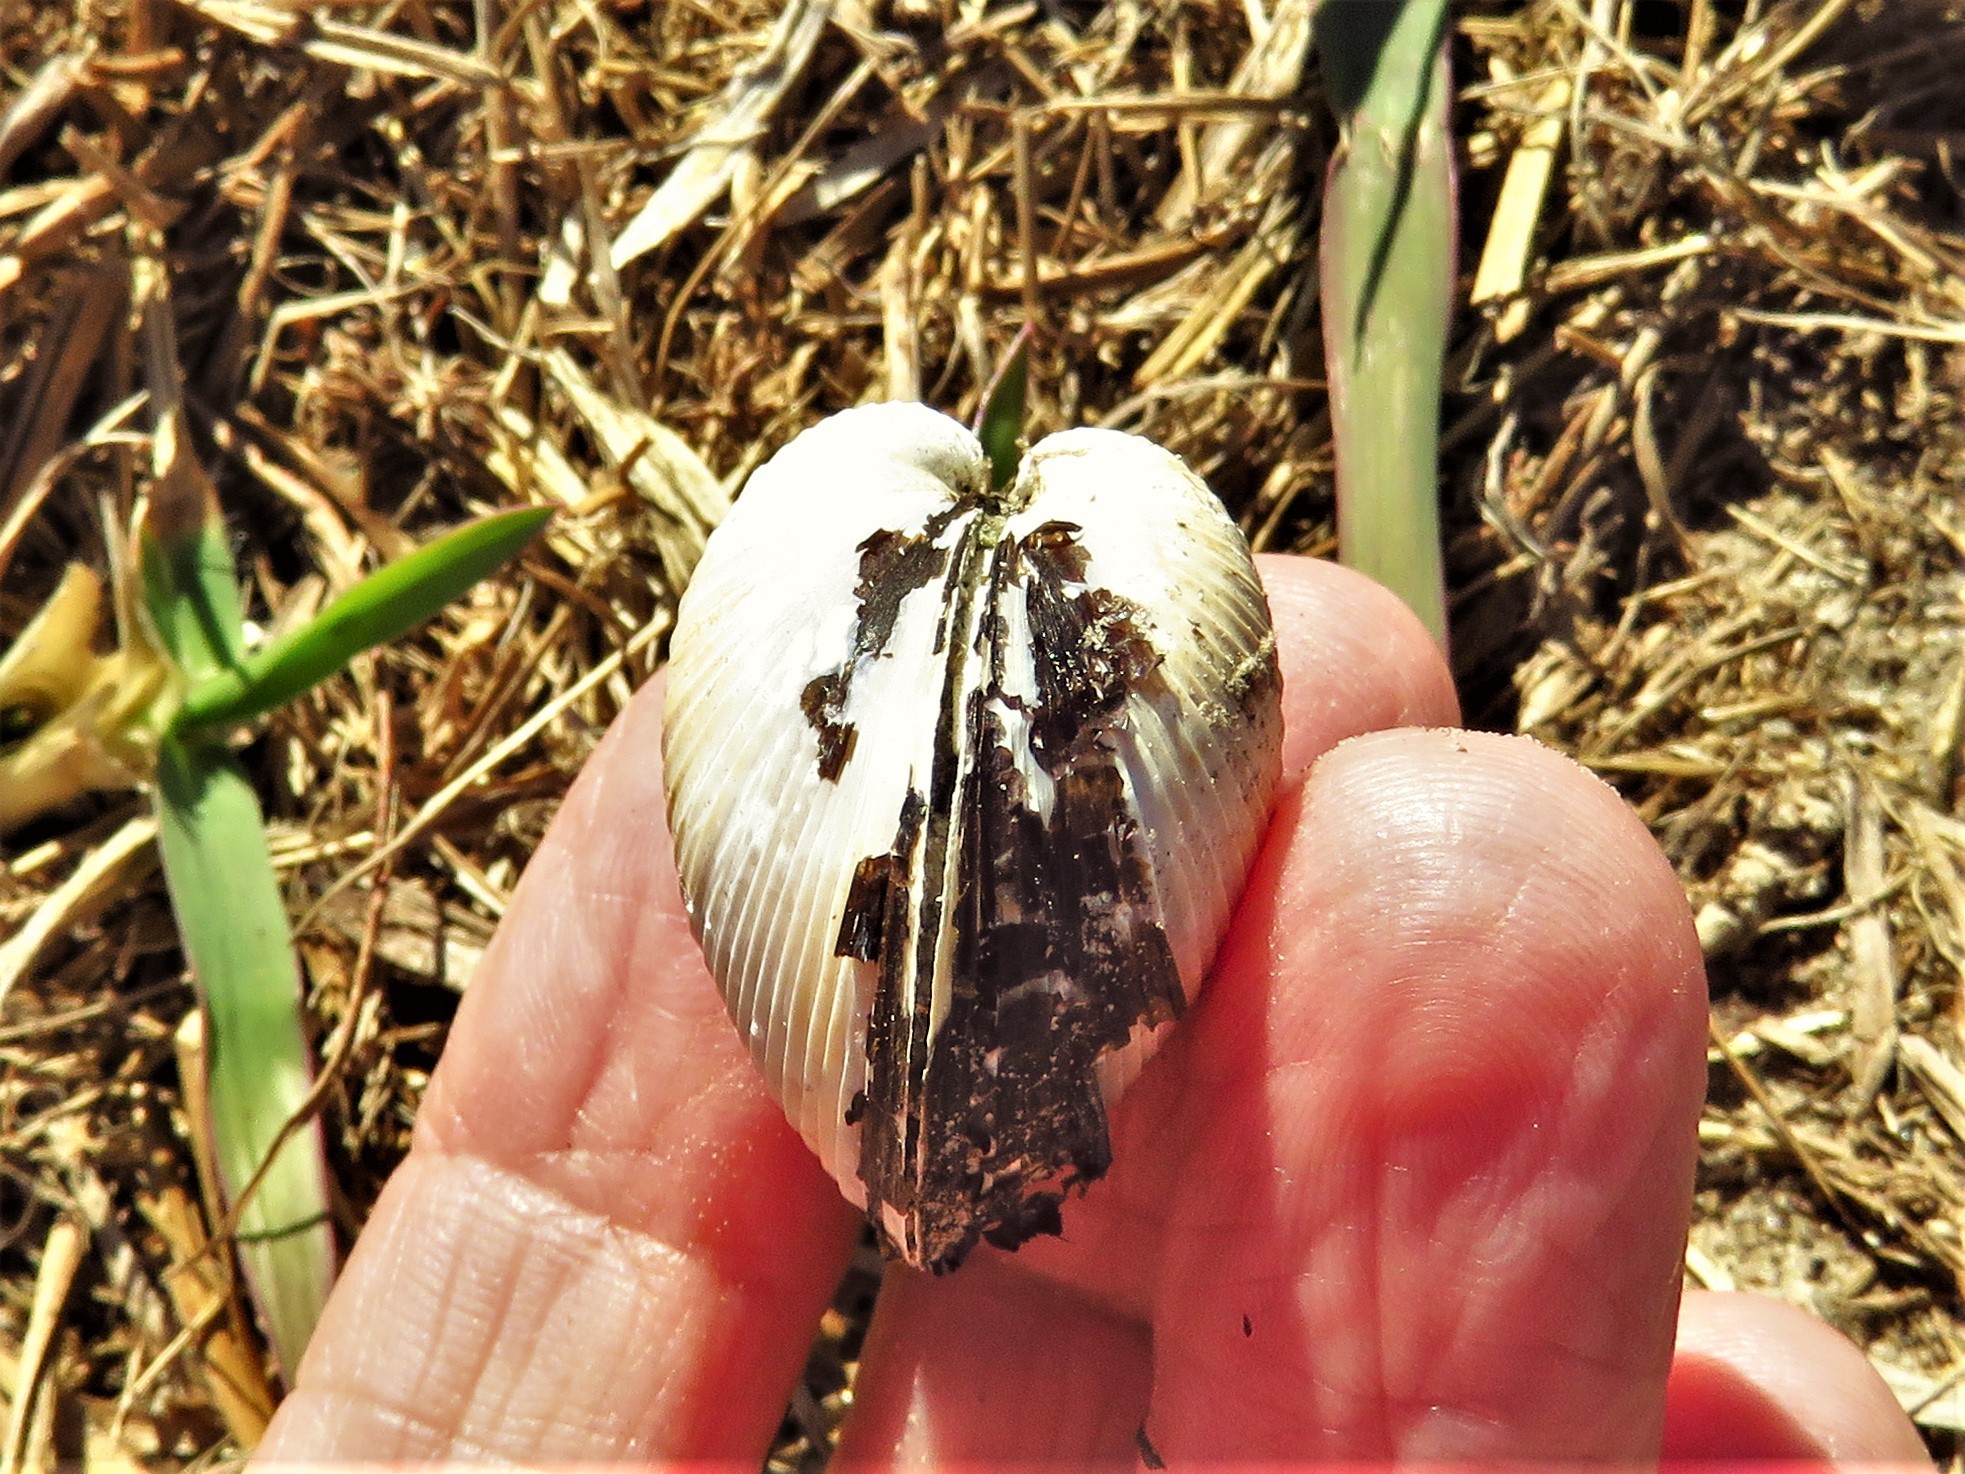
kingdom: Animalia
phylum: Mollusca
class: Bivalvia
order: Venerida
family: Cyrenidae
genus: Corbicula
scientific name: Corbicula fluminea
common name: Asian clam
